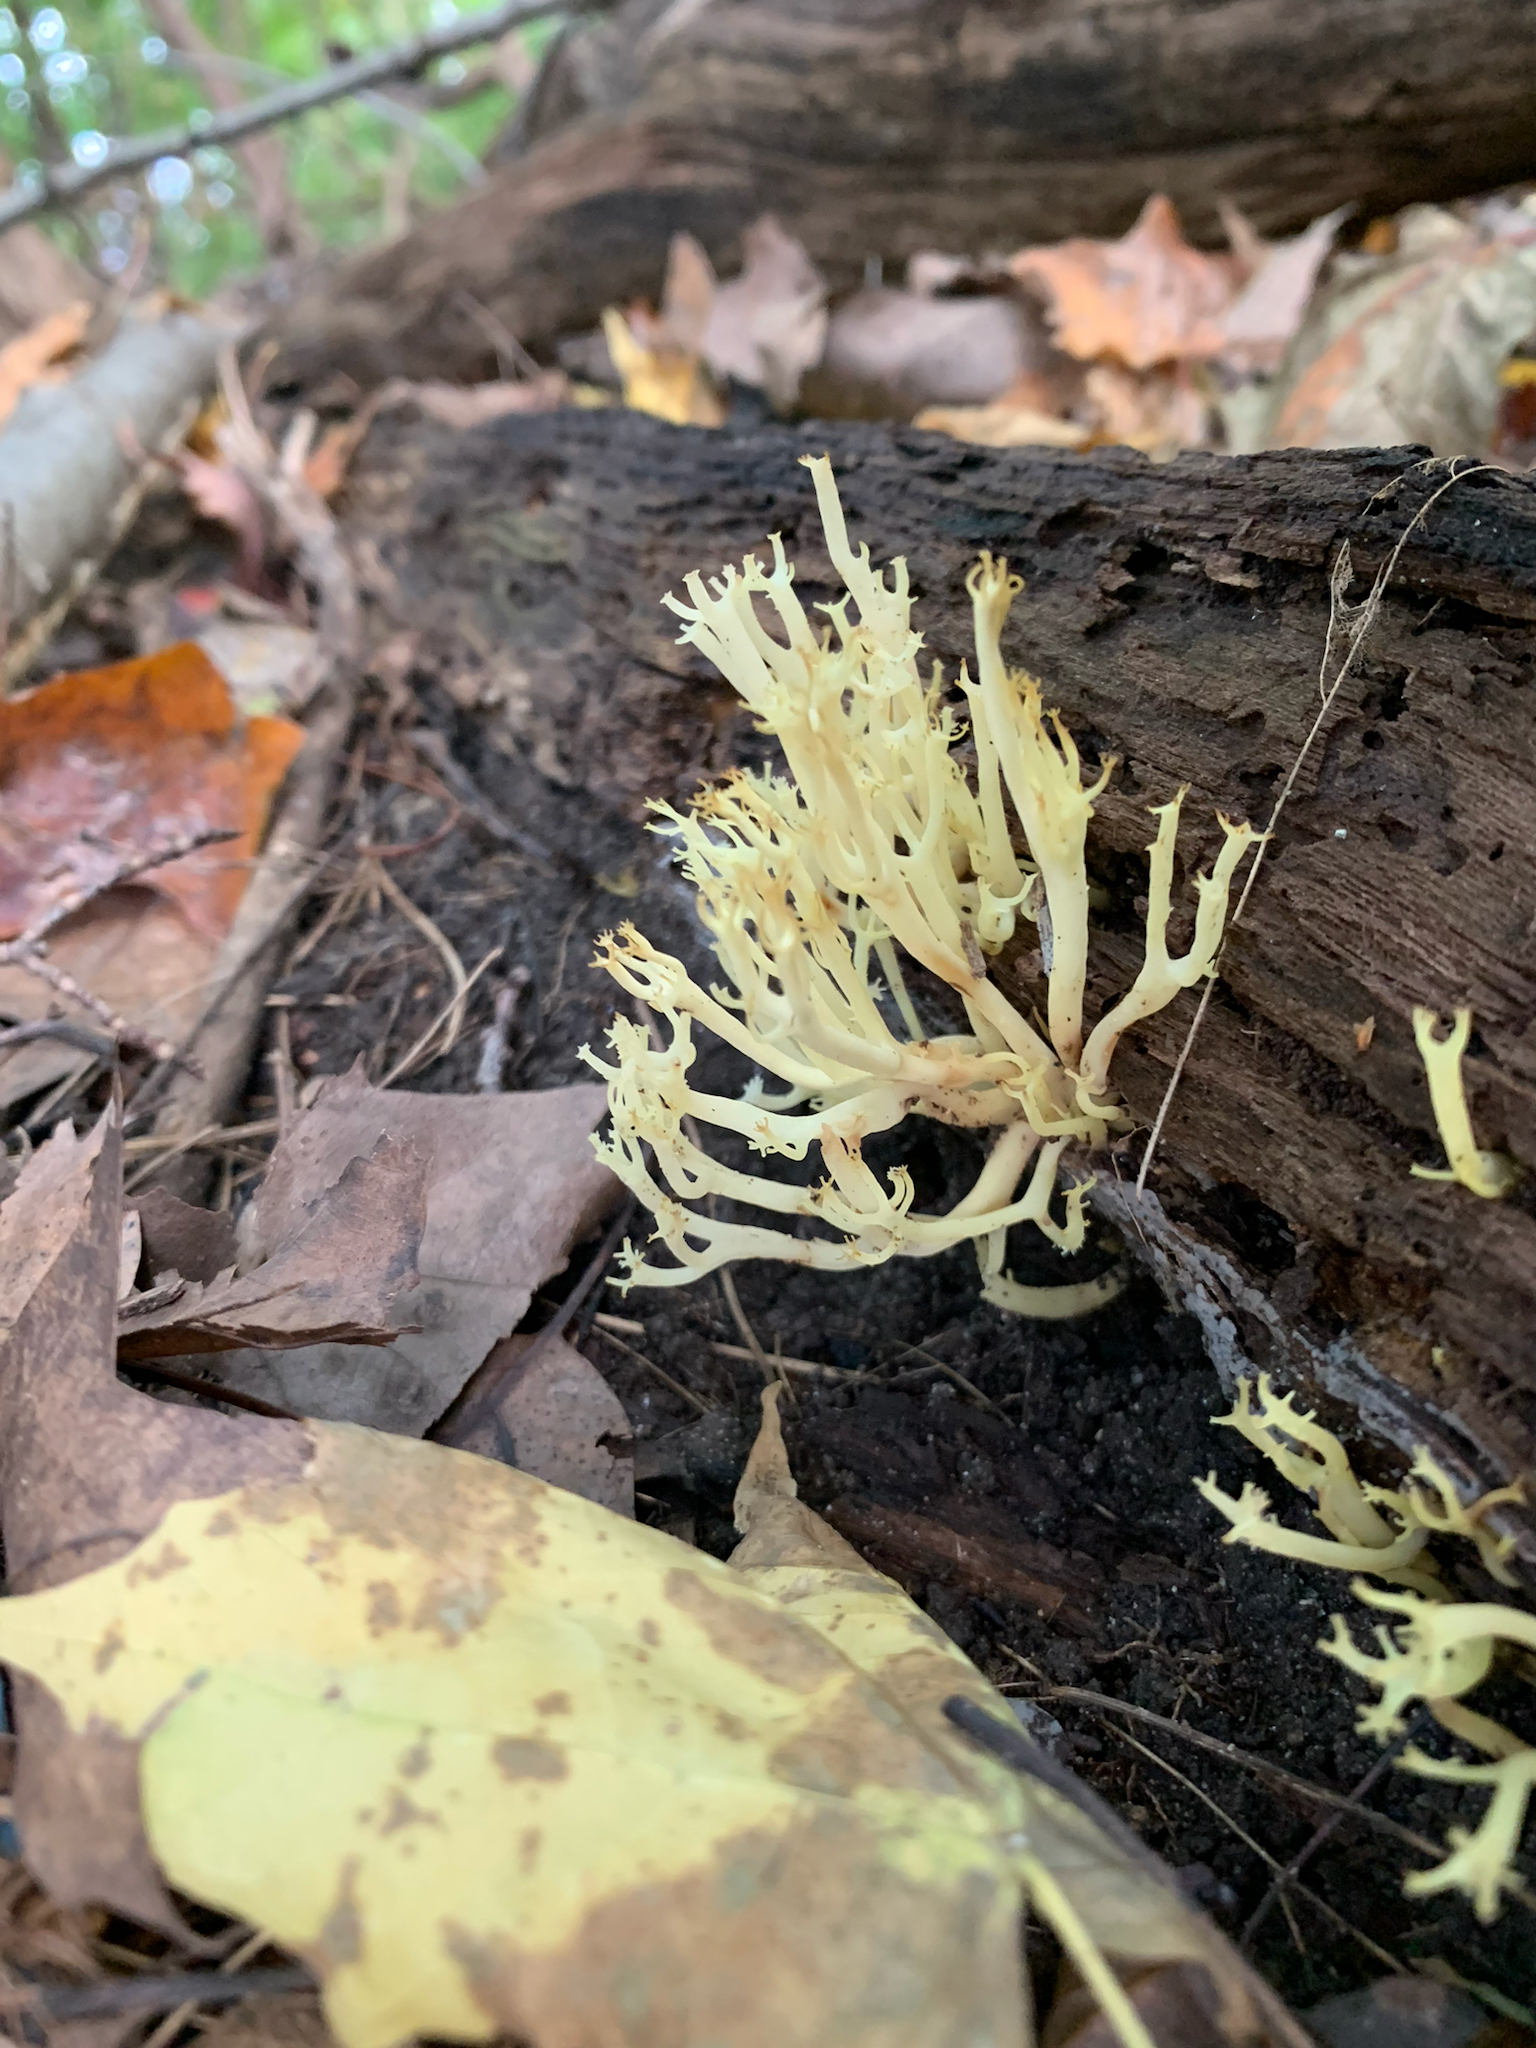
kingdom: Fungi
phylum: Basidiomycota
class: Agaricomycetes
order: Russulales
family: Auriscalpiaceae
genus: Artomyces
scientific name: Artomyces pyxidatus
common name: Crown-tipped coral fungus
